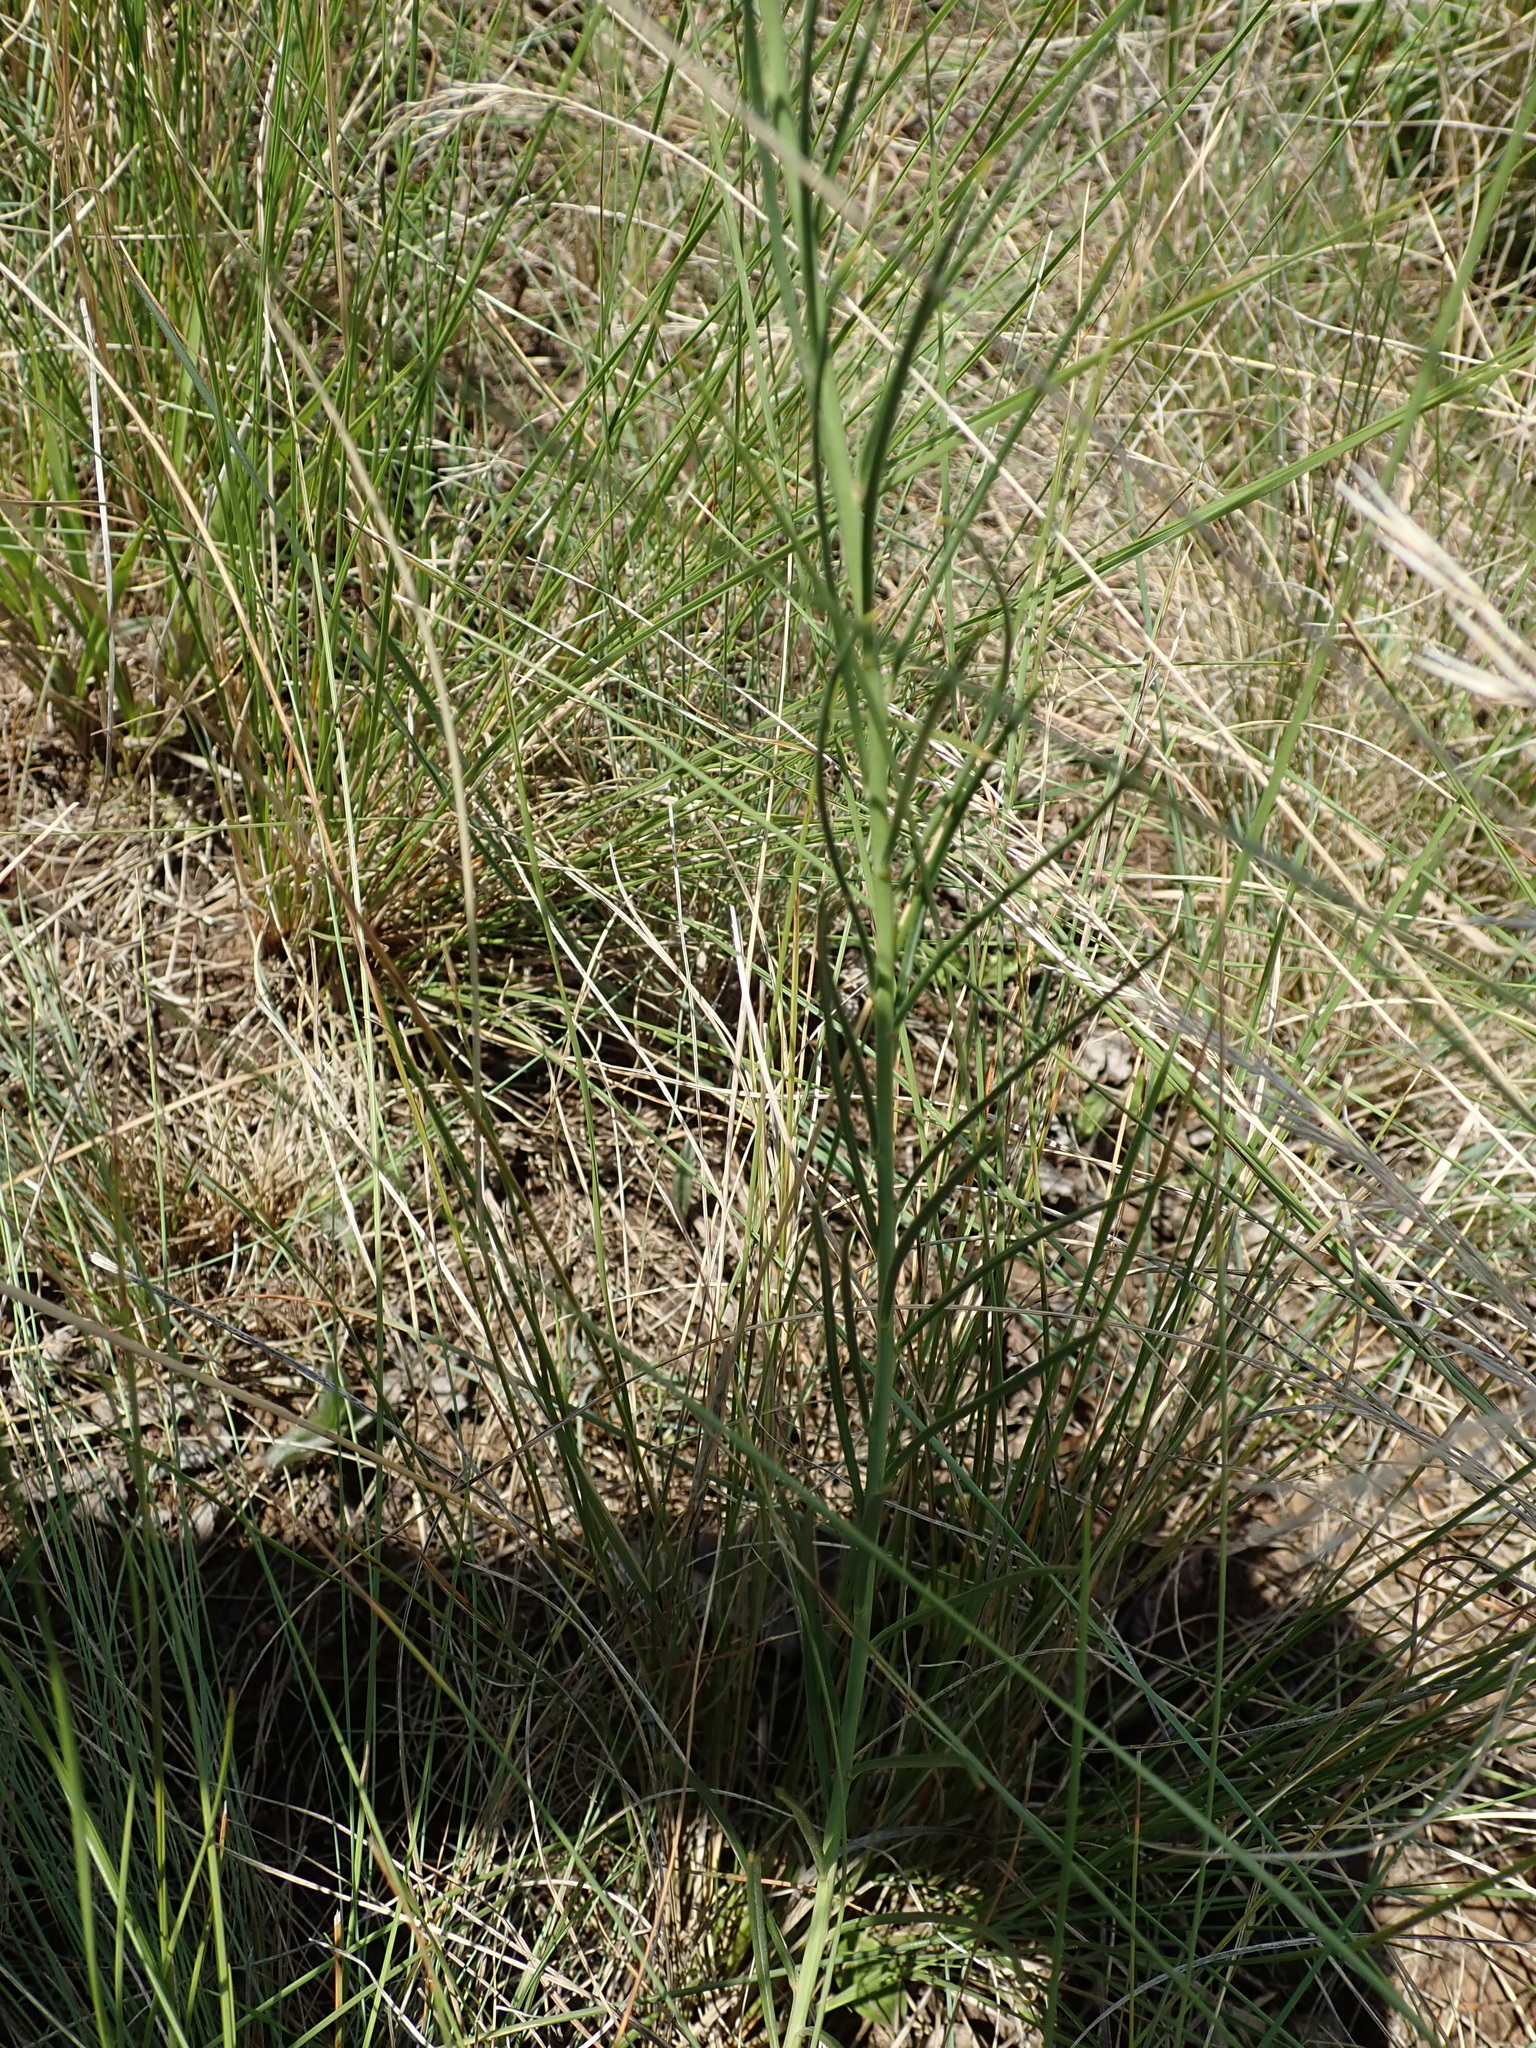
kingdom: Plantae
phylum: Tracheophyta
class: Magnoliopsida
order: Brassicales
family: Brassicaceae
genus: Heliophila
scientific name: Heliophila rigidiuscula
